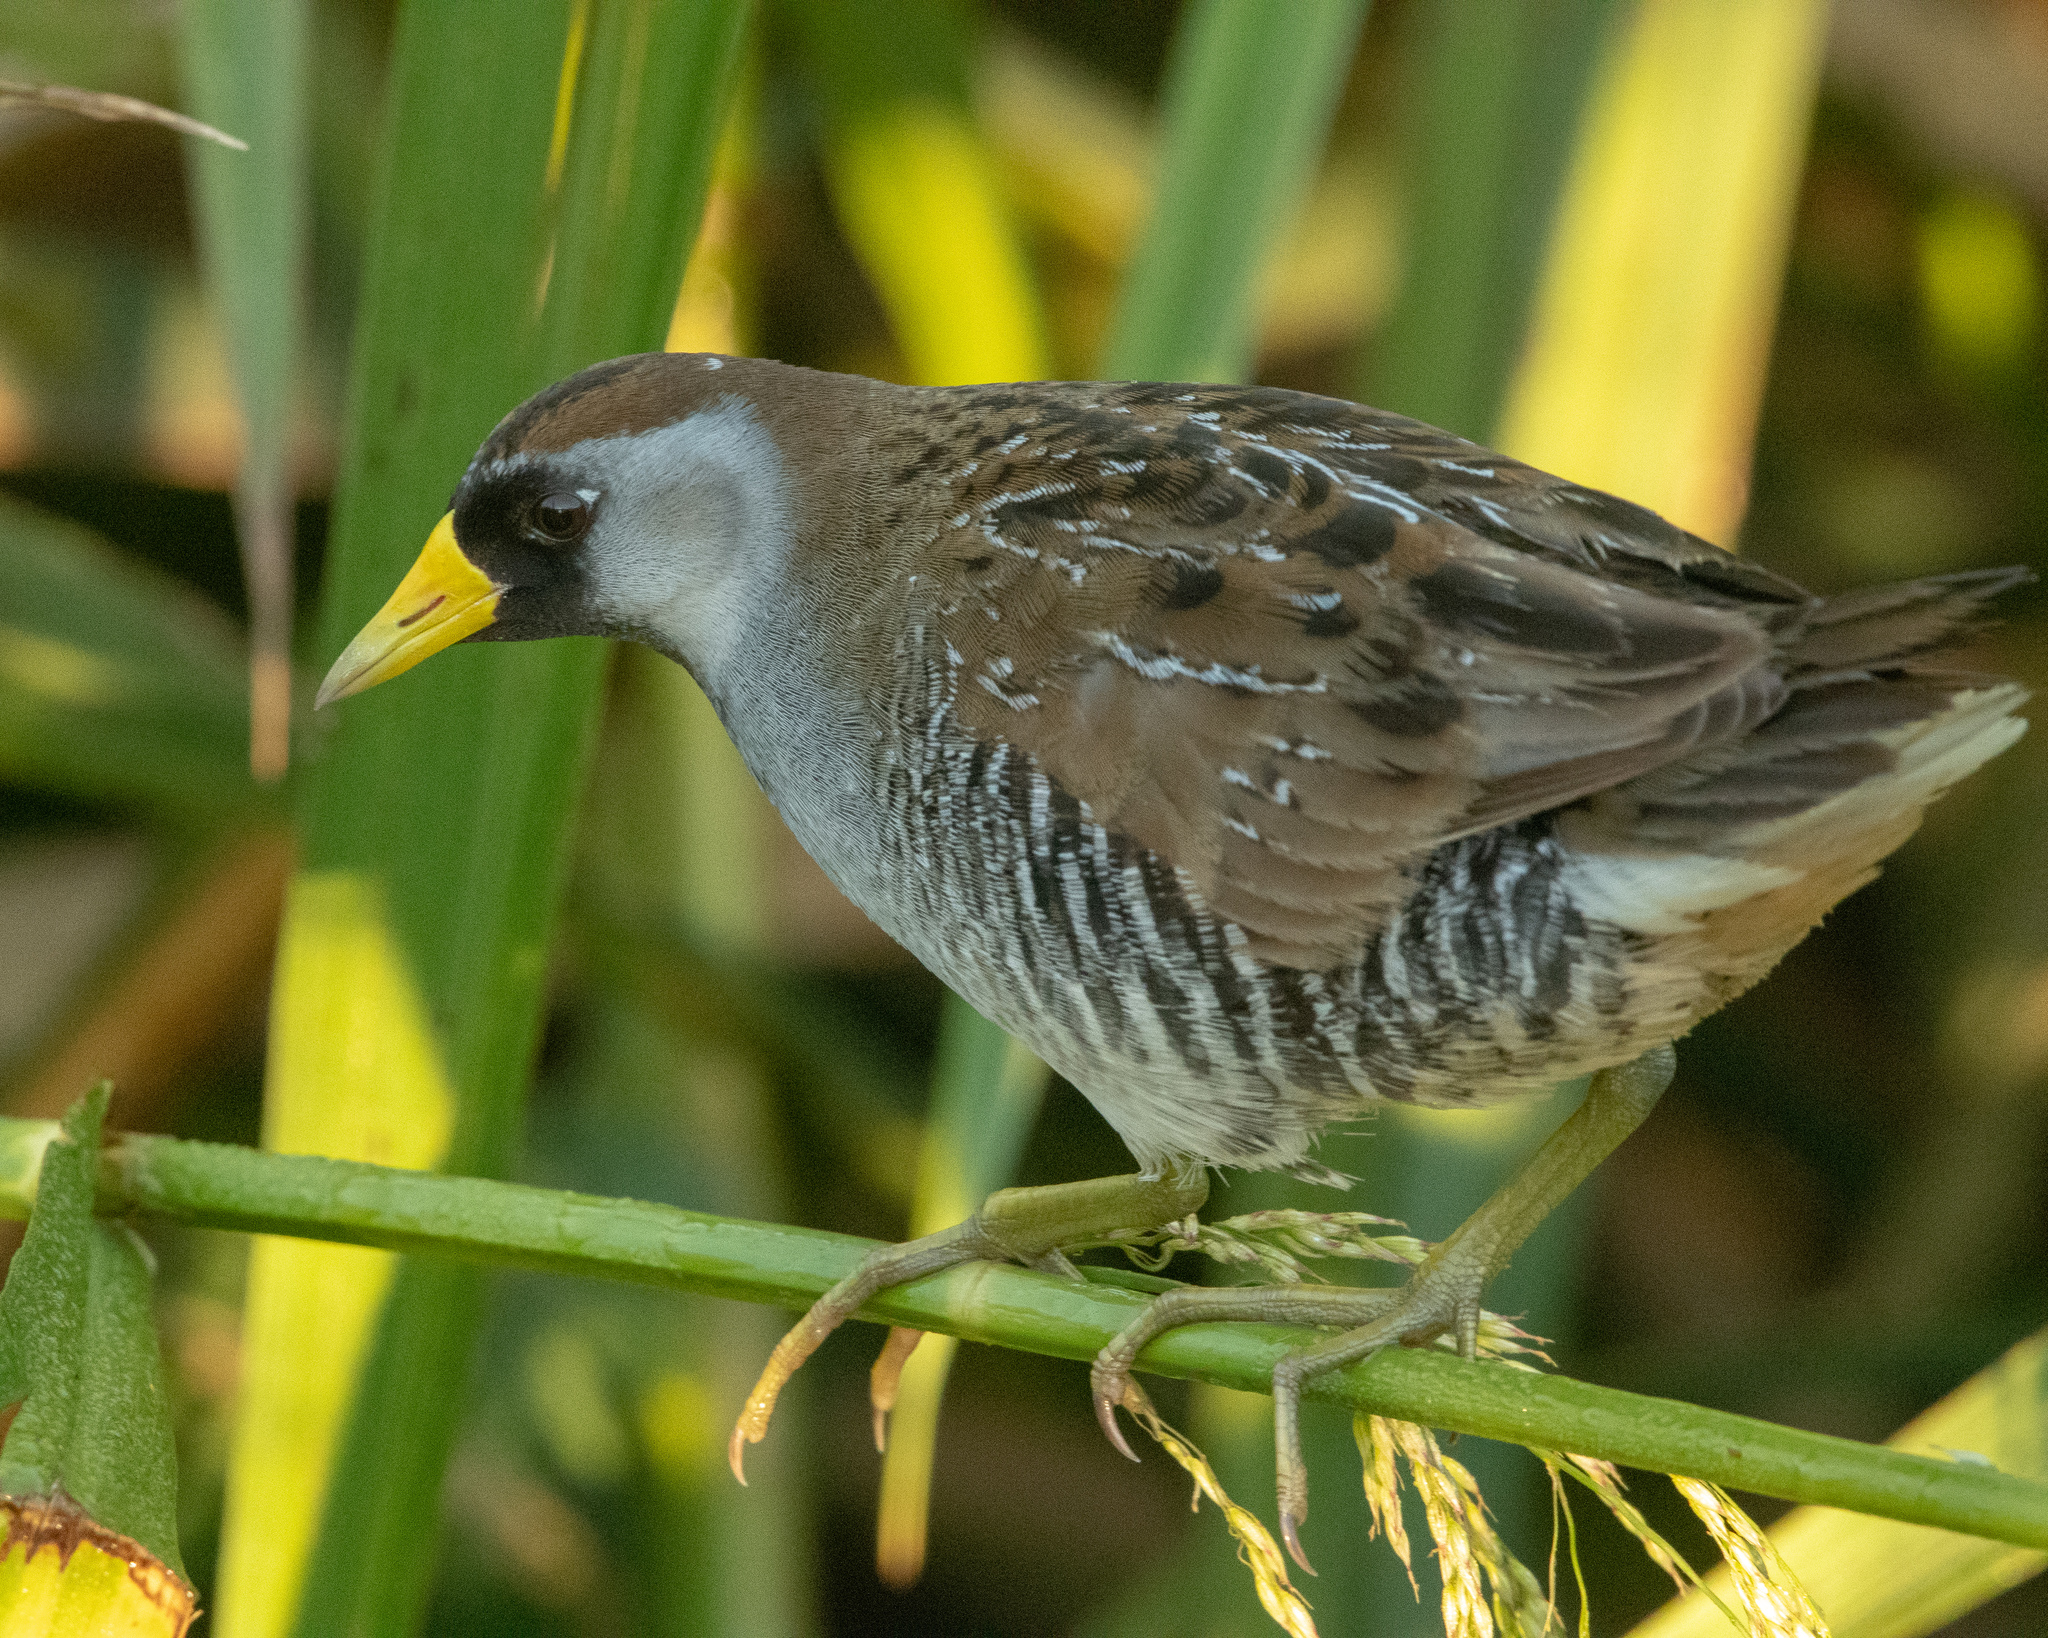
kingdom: Animalia
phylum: Chordata
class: Aves
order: Gruiformes
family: Rallidae
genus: Porzana
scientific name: Porzana carolina
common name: Sora
